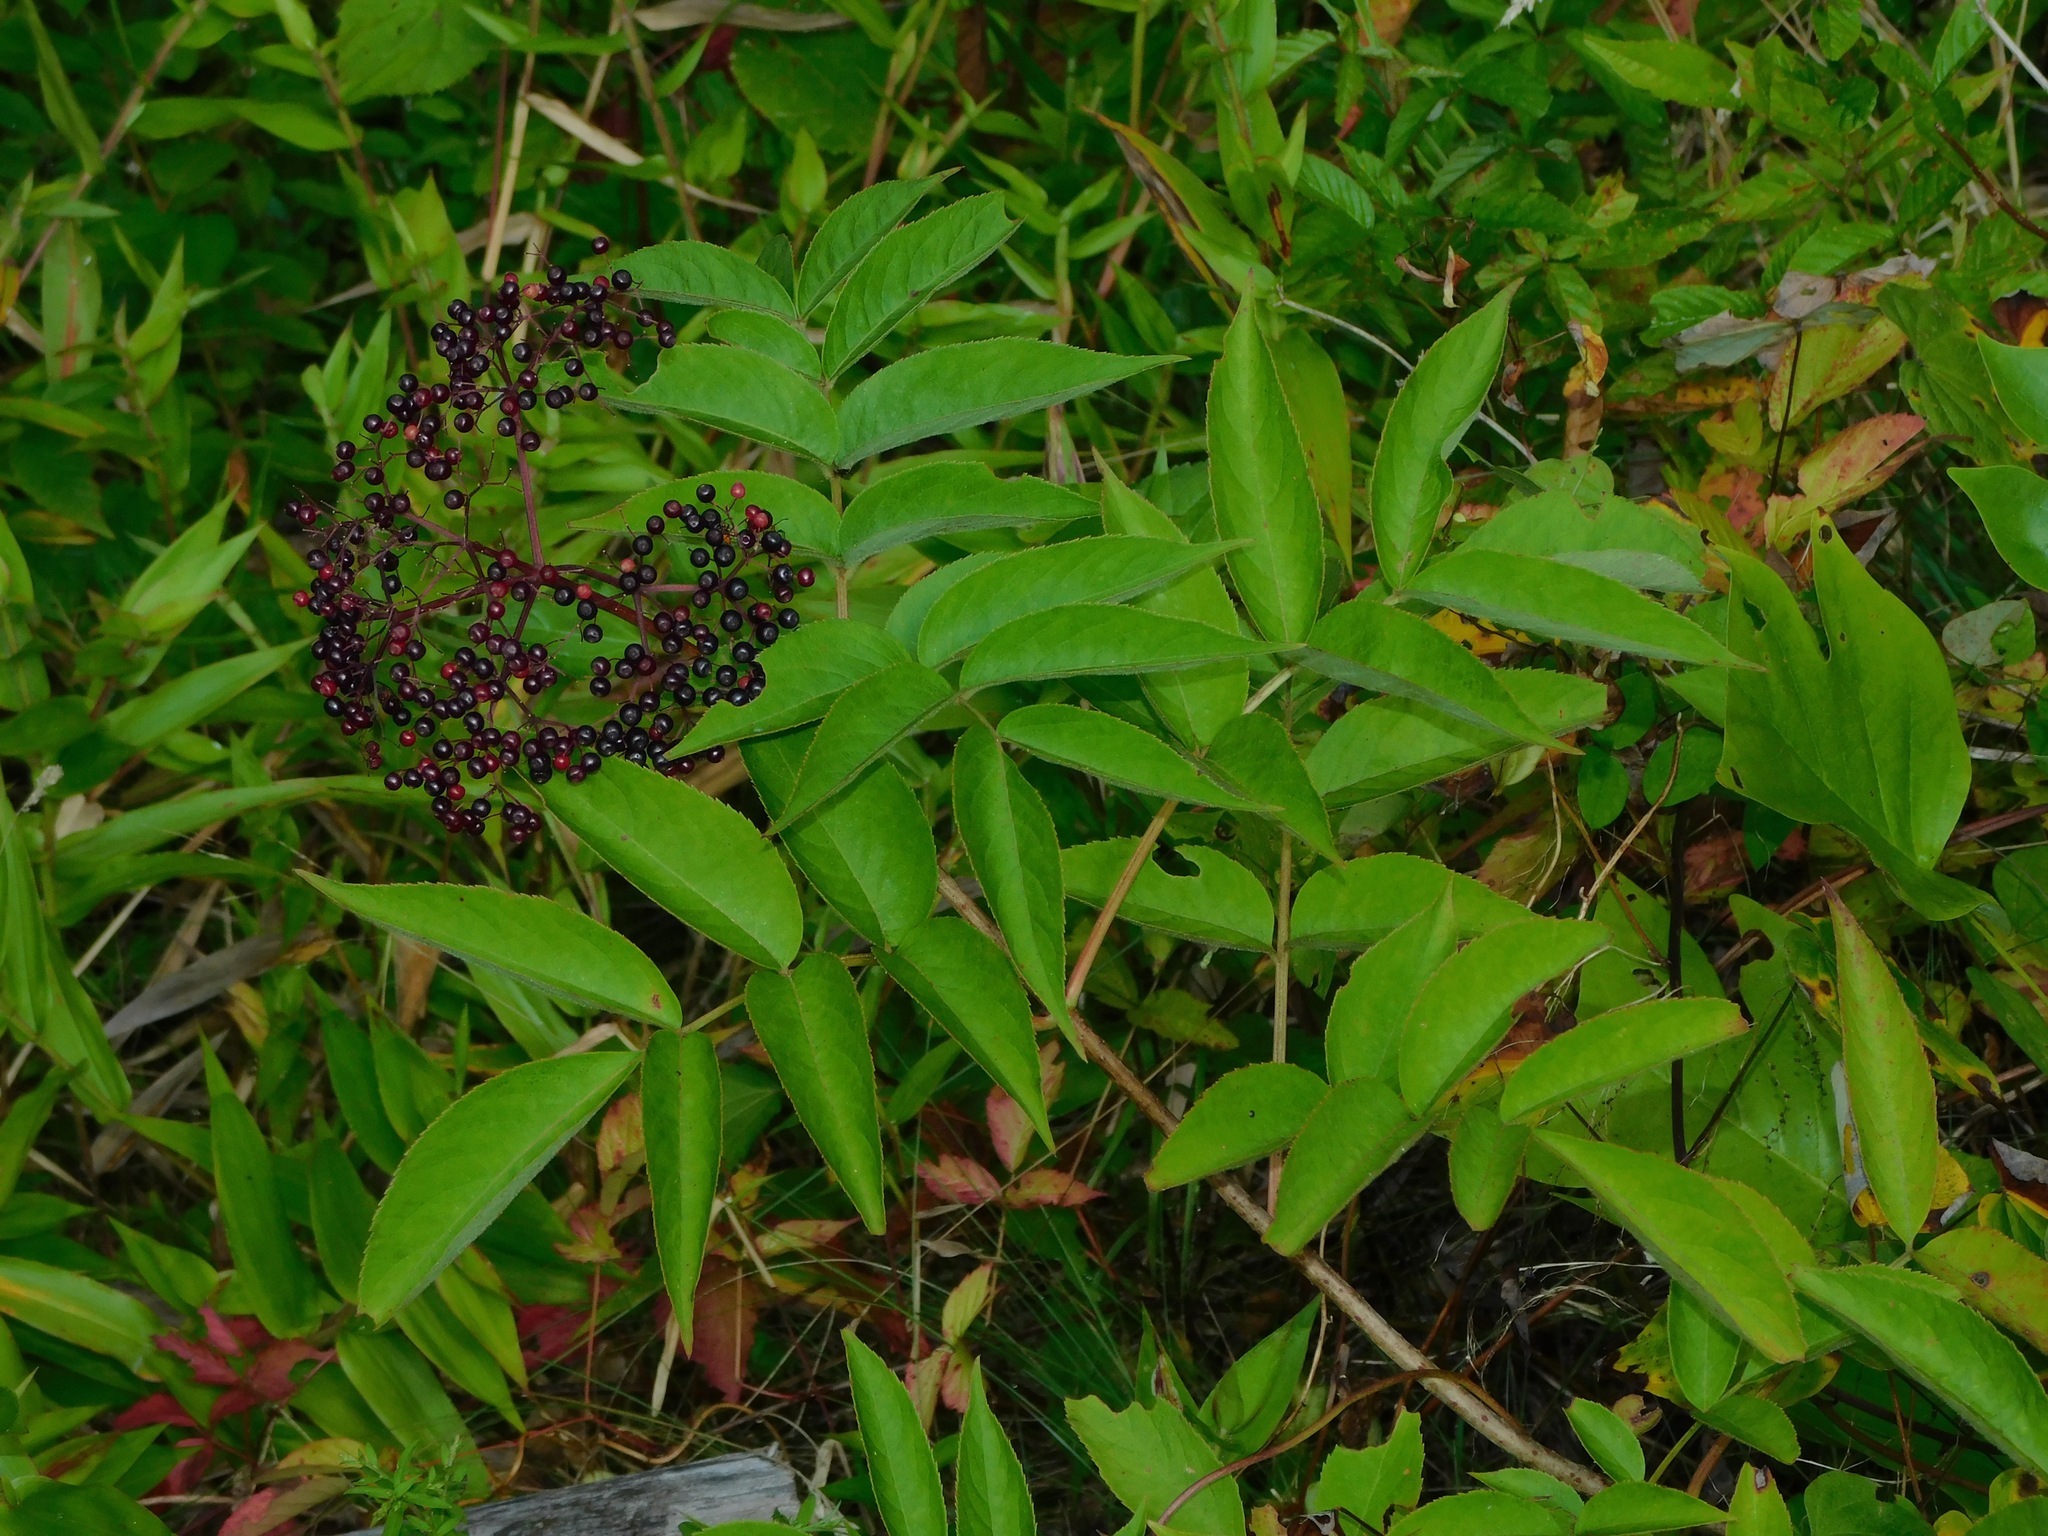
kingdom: Plantae
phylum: Tracheophyta
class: Magnoliopsida
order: Dipsacales
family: Viburnaceae
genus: Sambucus
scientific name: Sambucus canadensis
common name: American elder
